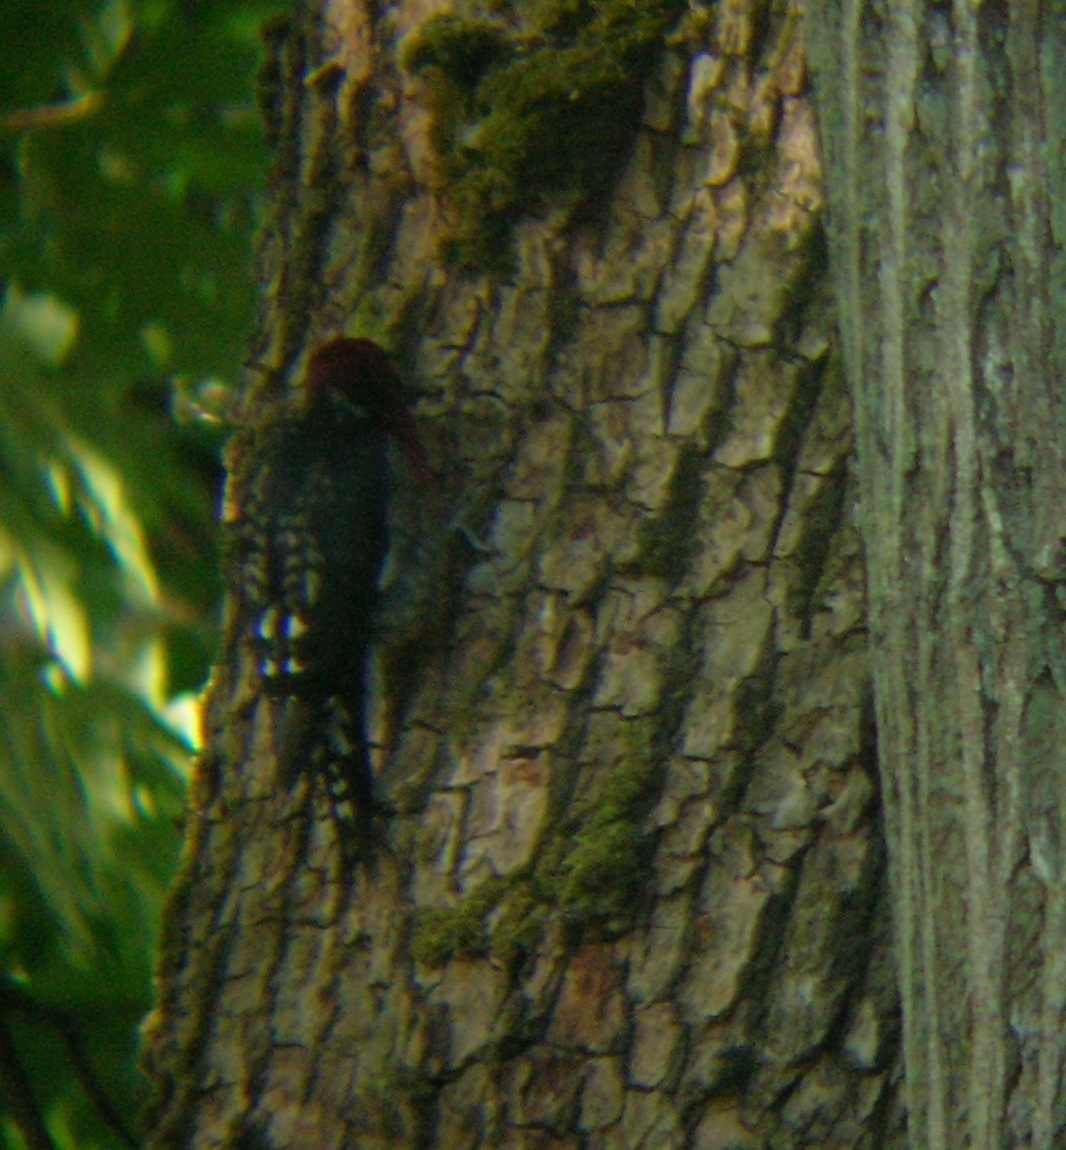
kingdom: Animalia
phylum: Chordata
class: Aves
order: Piciformes
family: Picidae
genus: Sphyrapicus
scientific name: Sphyrapicus ruber
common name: Red-breasted sapsucker
